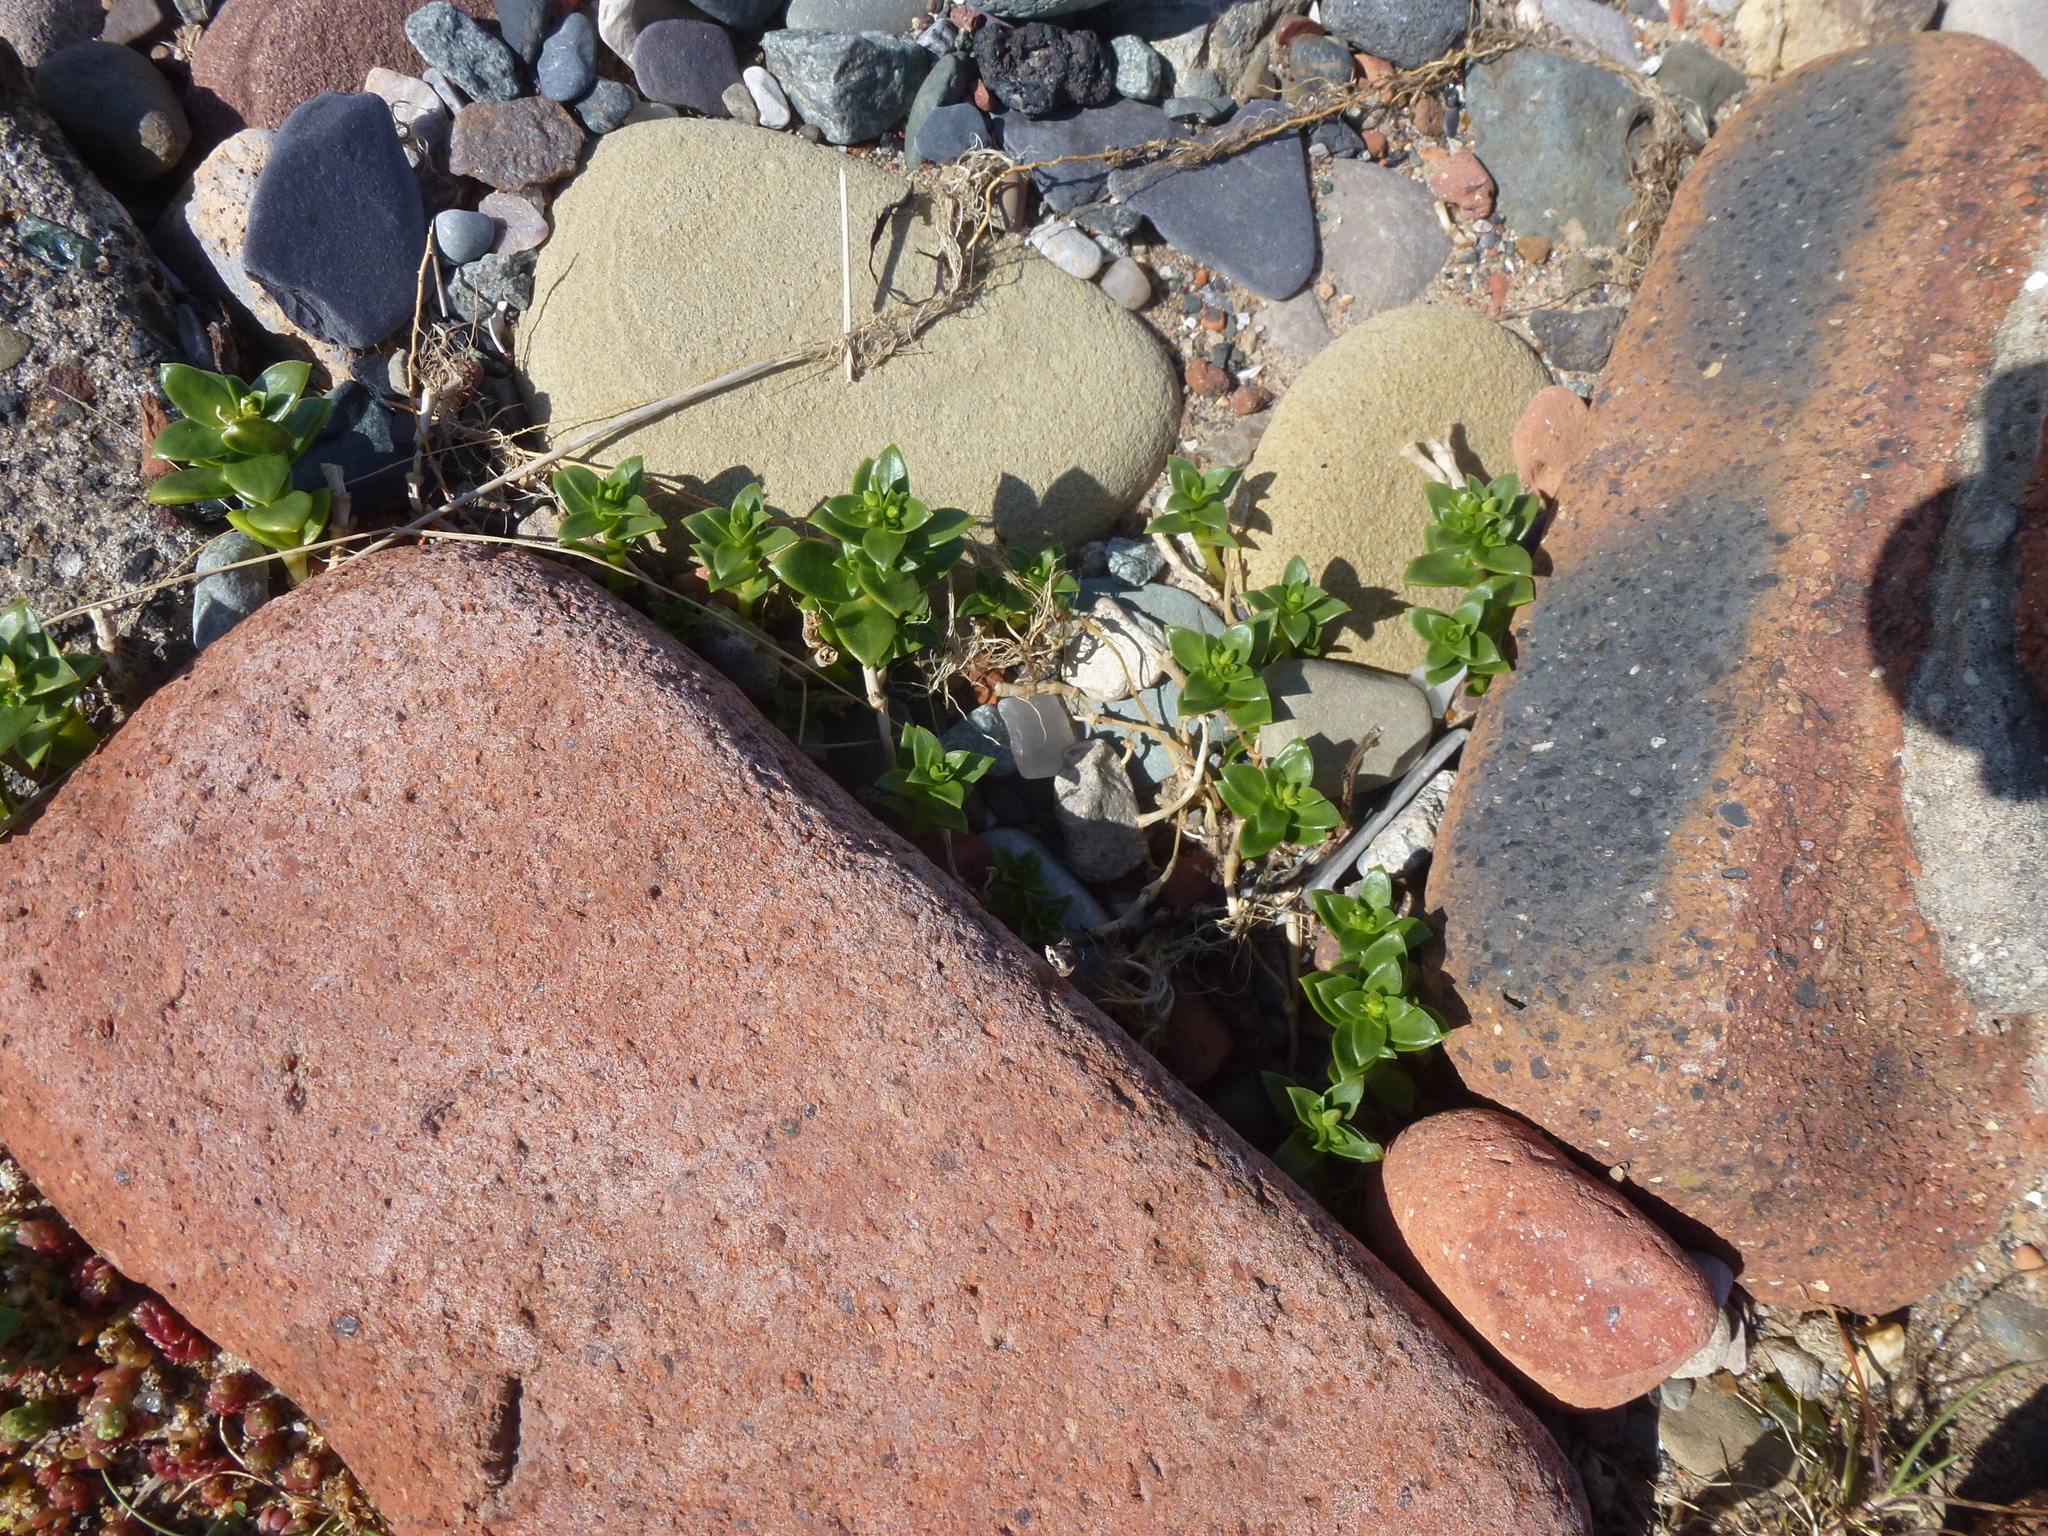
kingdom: Plantae
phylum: Tracheophyta
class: Magnoliopsida
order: Caryophyllales
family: Caryophyllaceae
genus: Honckenya
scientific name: Honckenya peploides
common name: Sea sandwort
